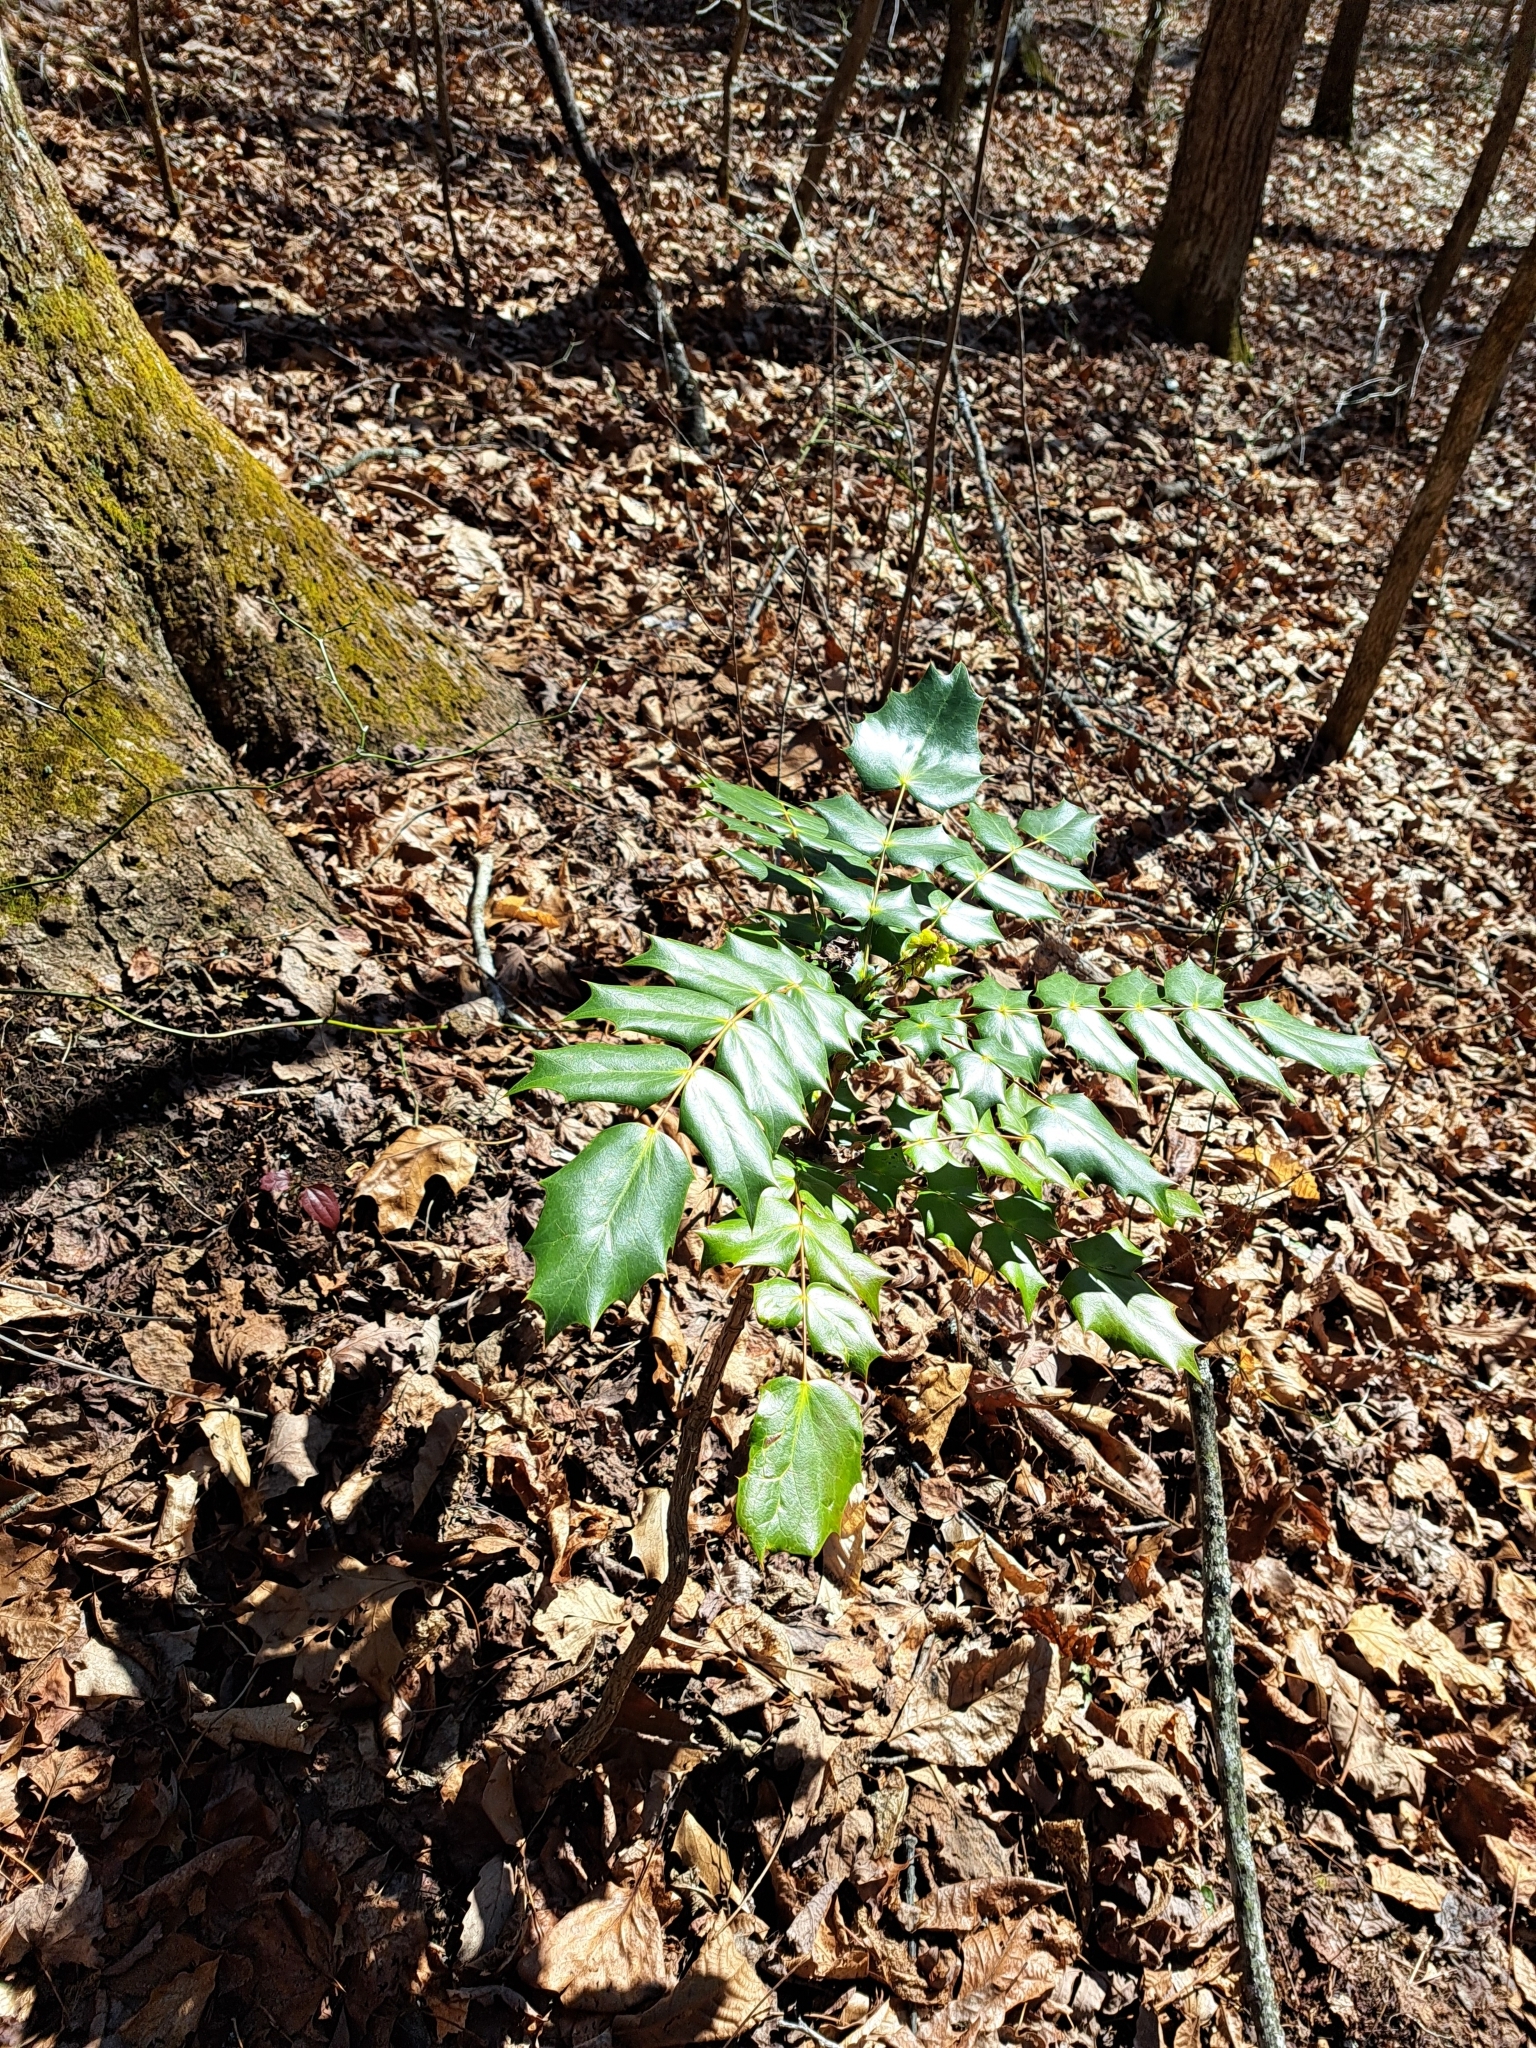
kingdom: Plantae
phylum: Tracheophyta
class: Magnoliopsida
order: Ranunculales
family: Berberidaceae
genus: Mahonia
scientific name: Mahonia bealei
